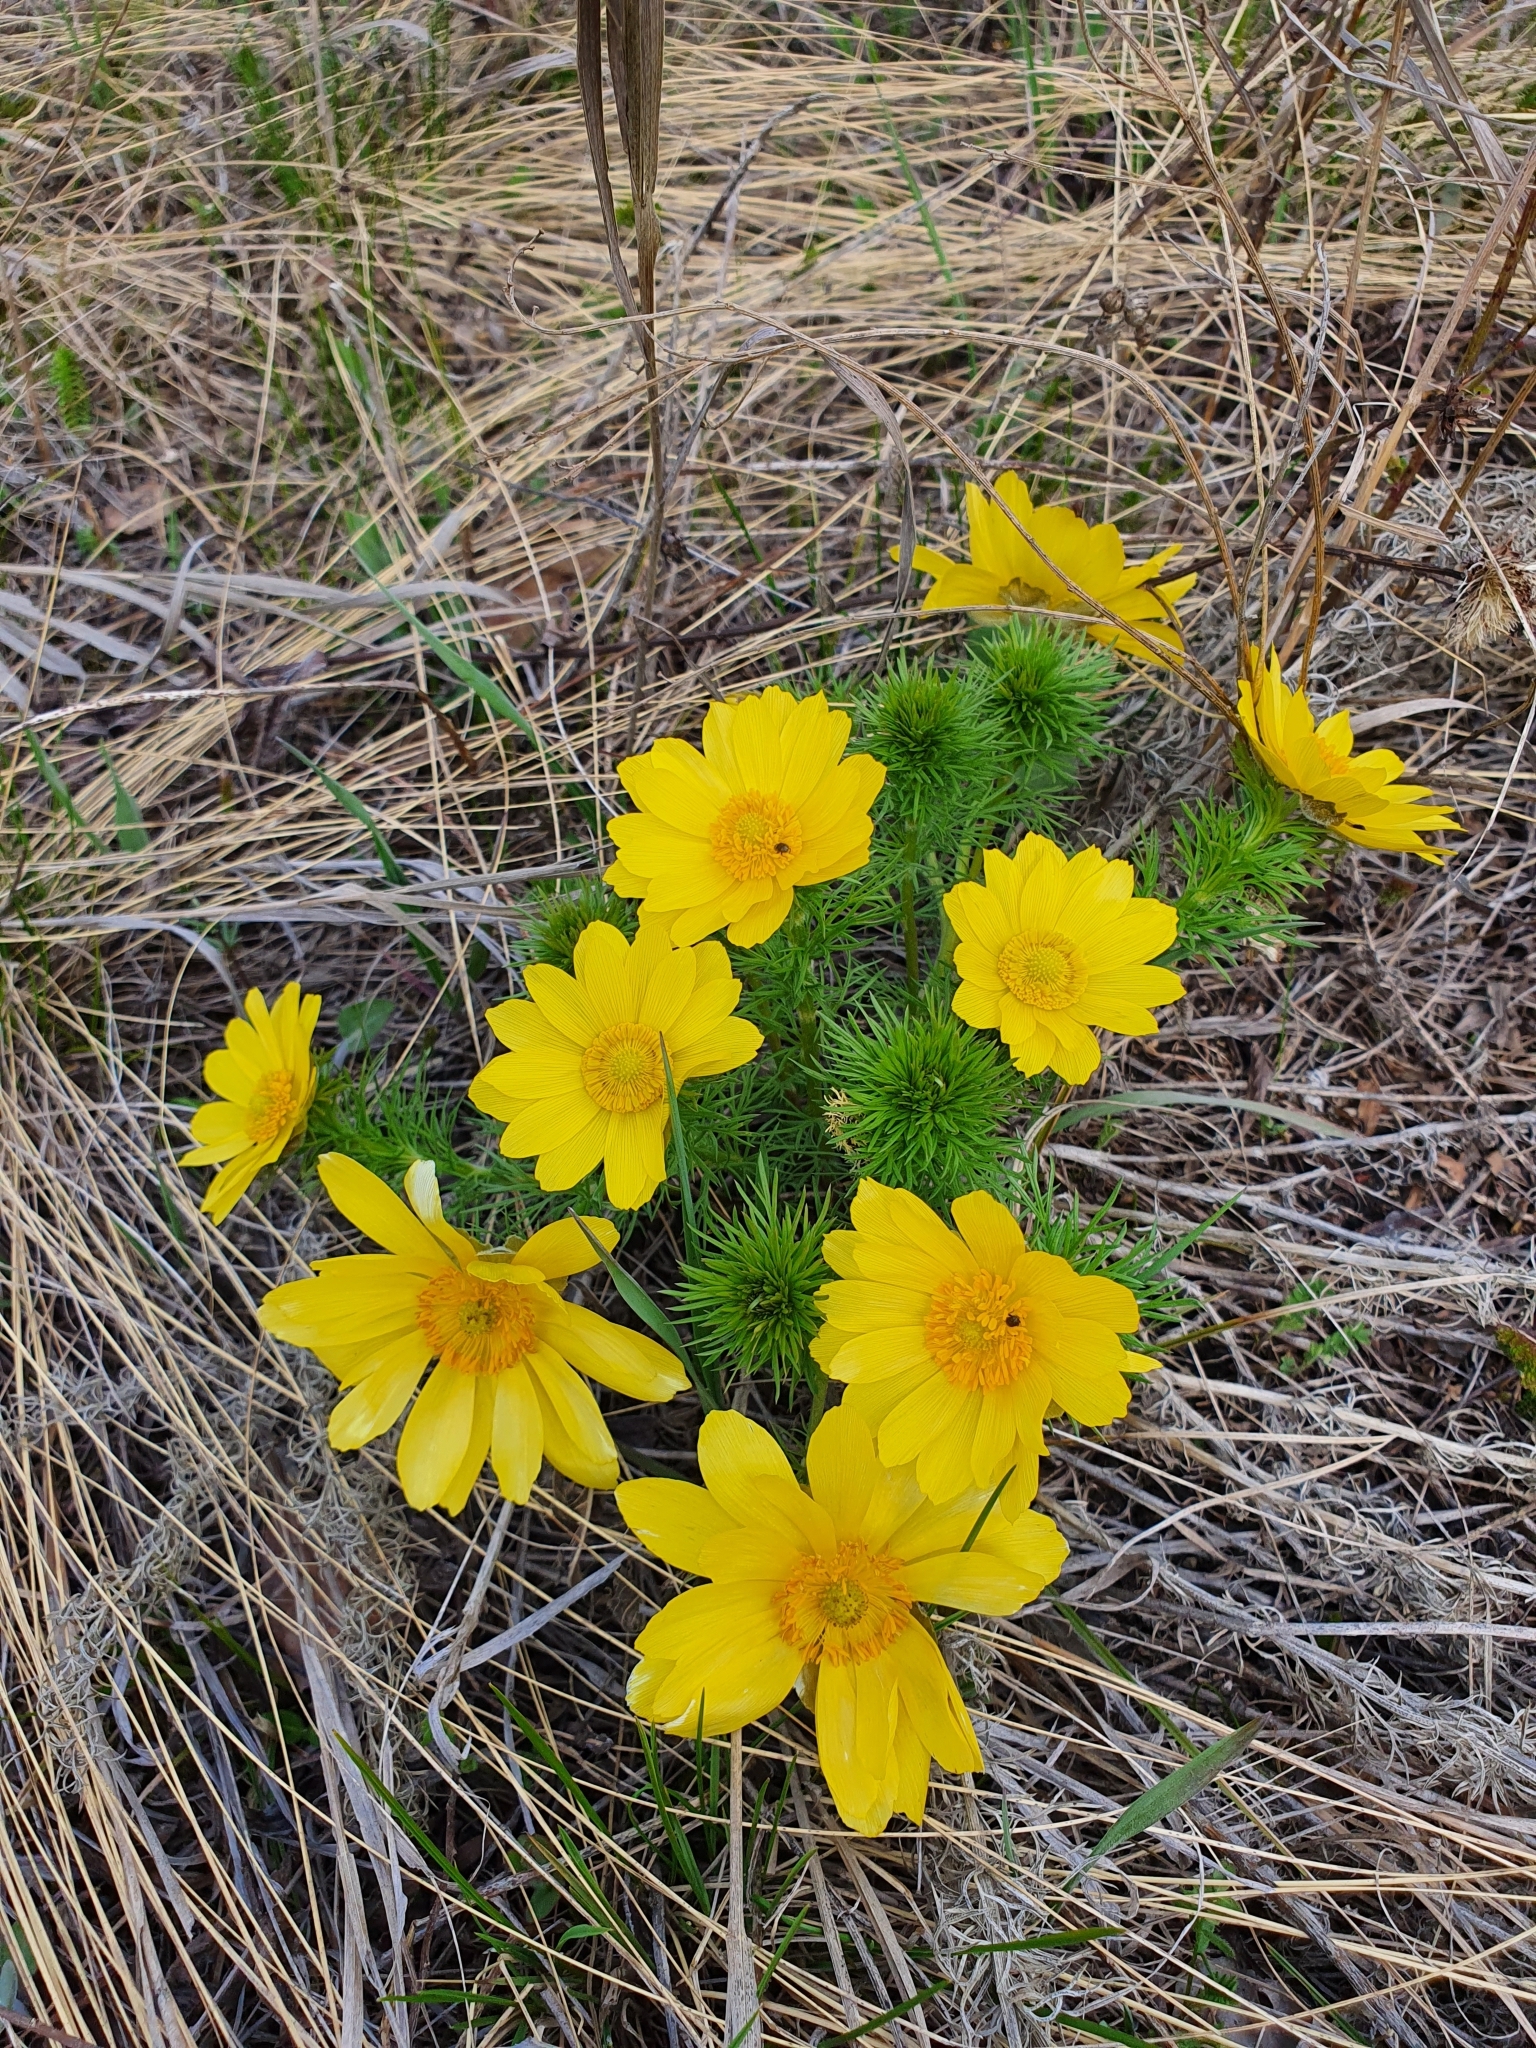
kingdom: Plantae
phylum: Tracheophyta
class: Magnoliopsida
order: Ranunculales
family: Ranunculaceae
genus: Adonis
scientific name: Adonis vernalis
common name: Yellow pheasants-eye
